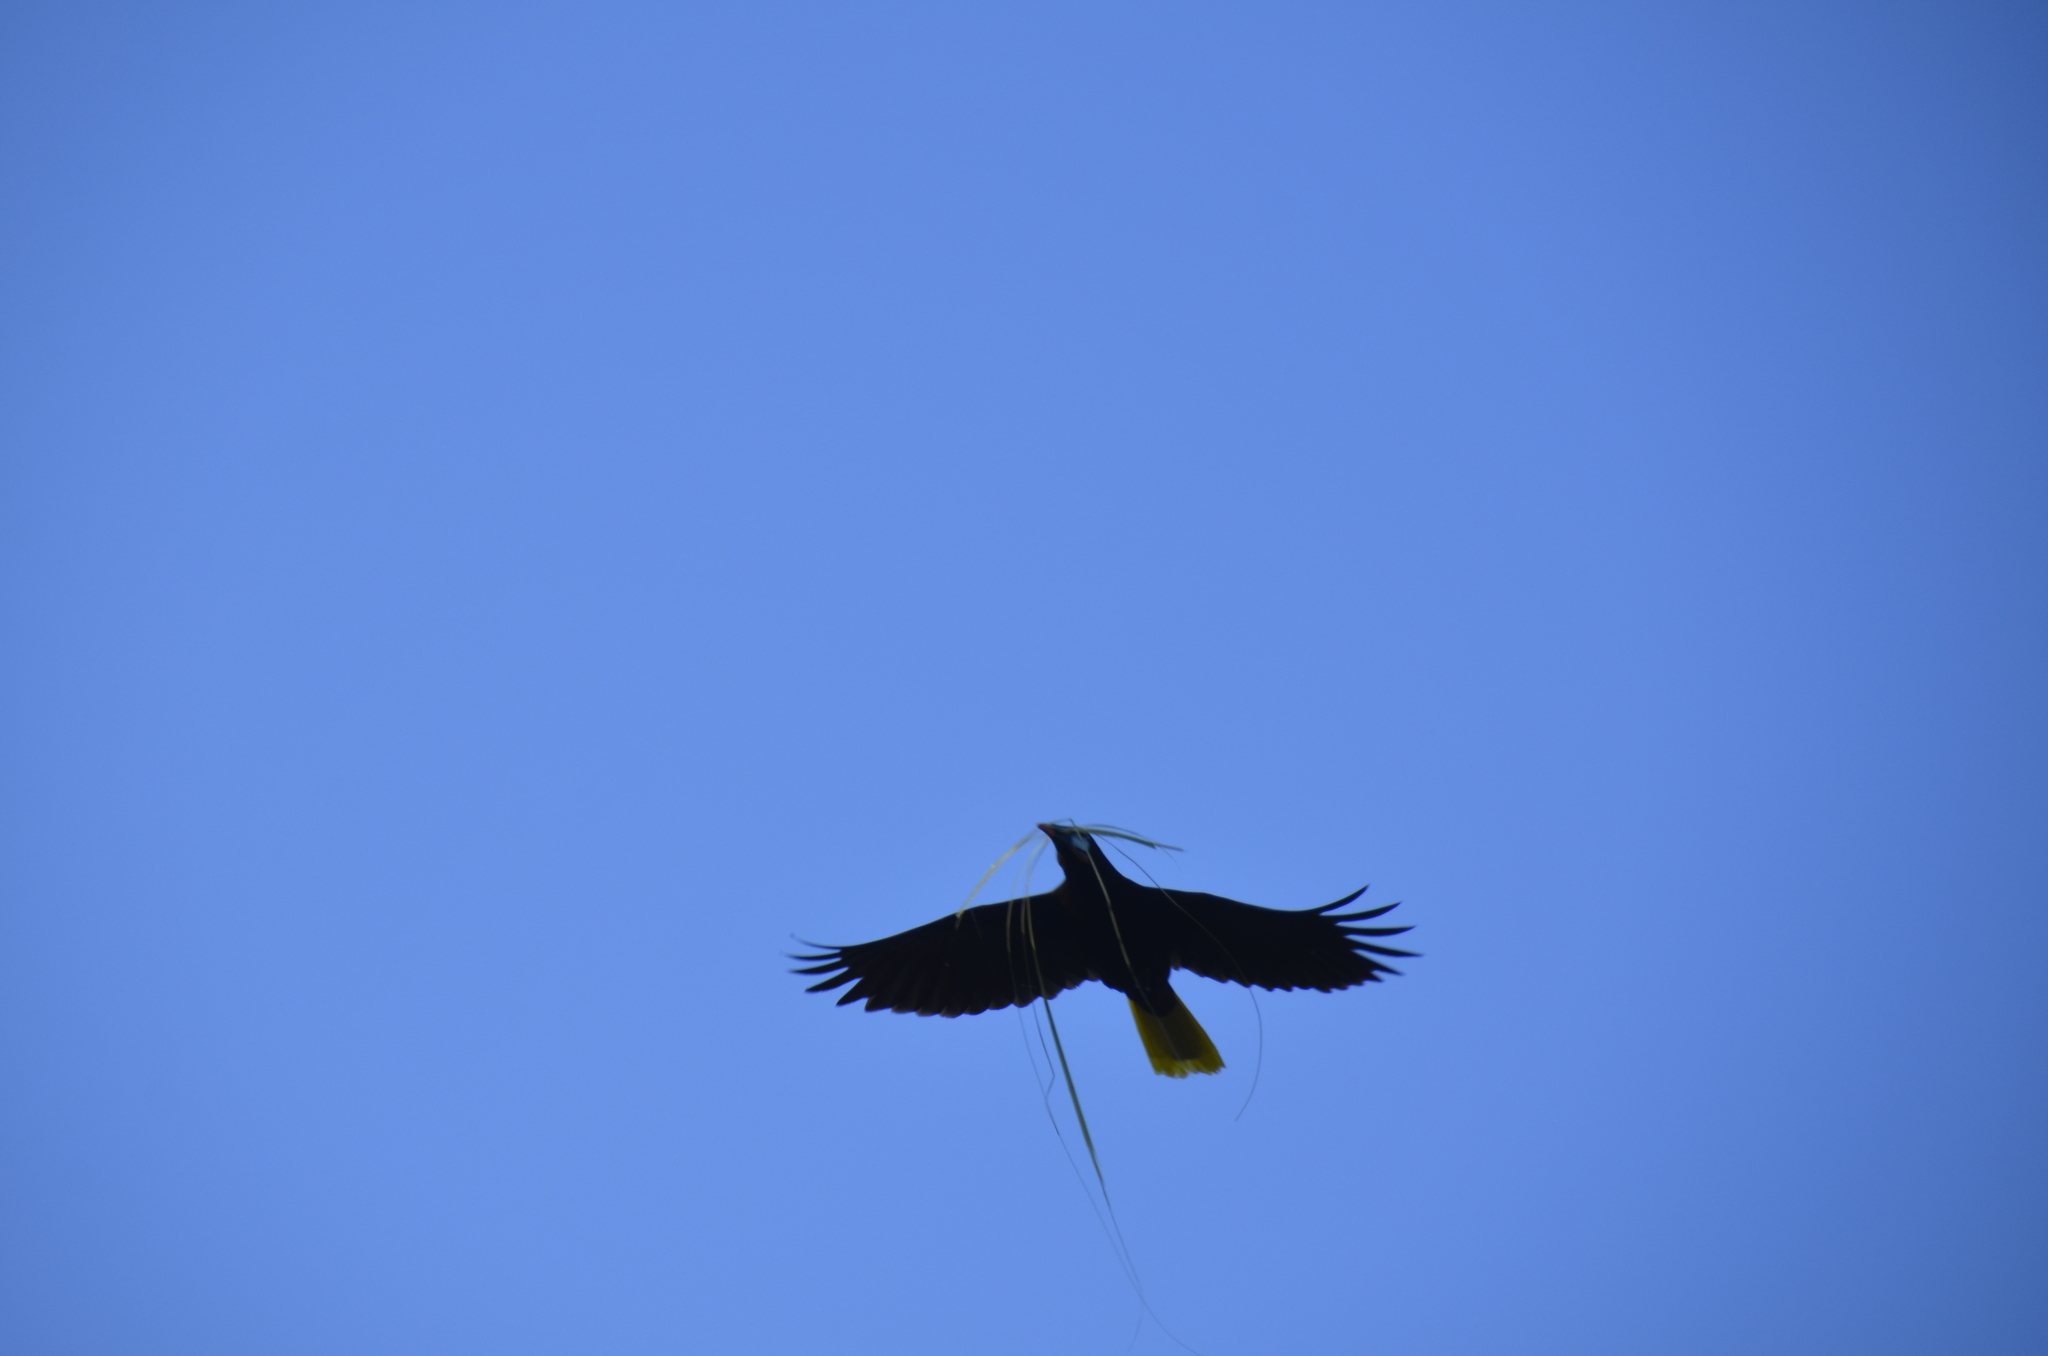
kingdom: Animalia
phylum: Chordata
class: Aves
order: Passeriformes
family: Icteridae
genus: Psarocolius
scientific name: Psarocolius montezuma
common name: Montezuma oropendola
